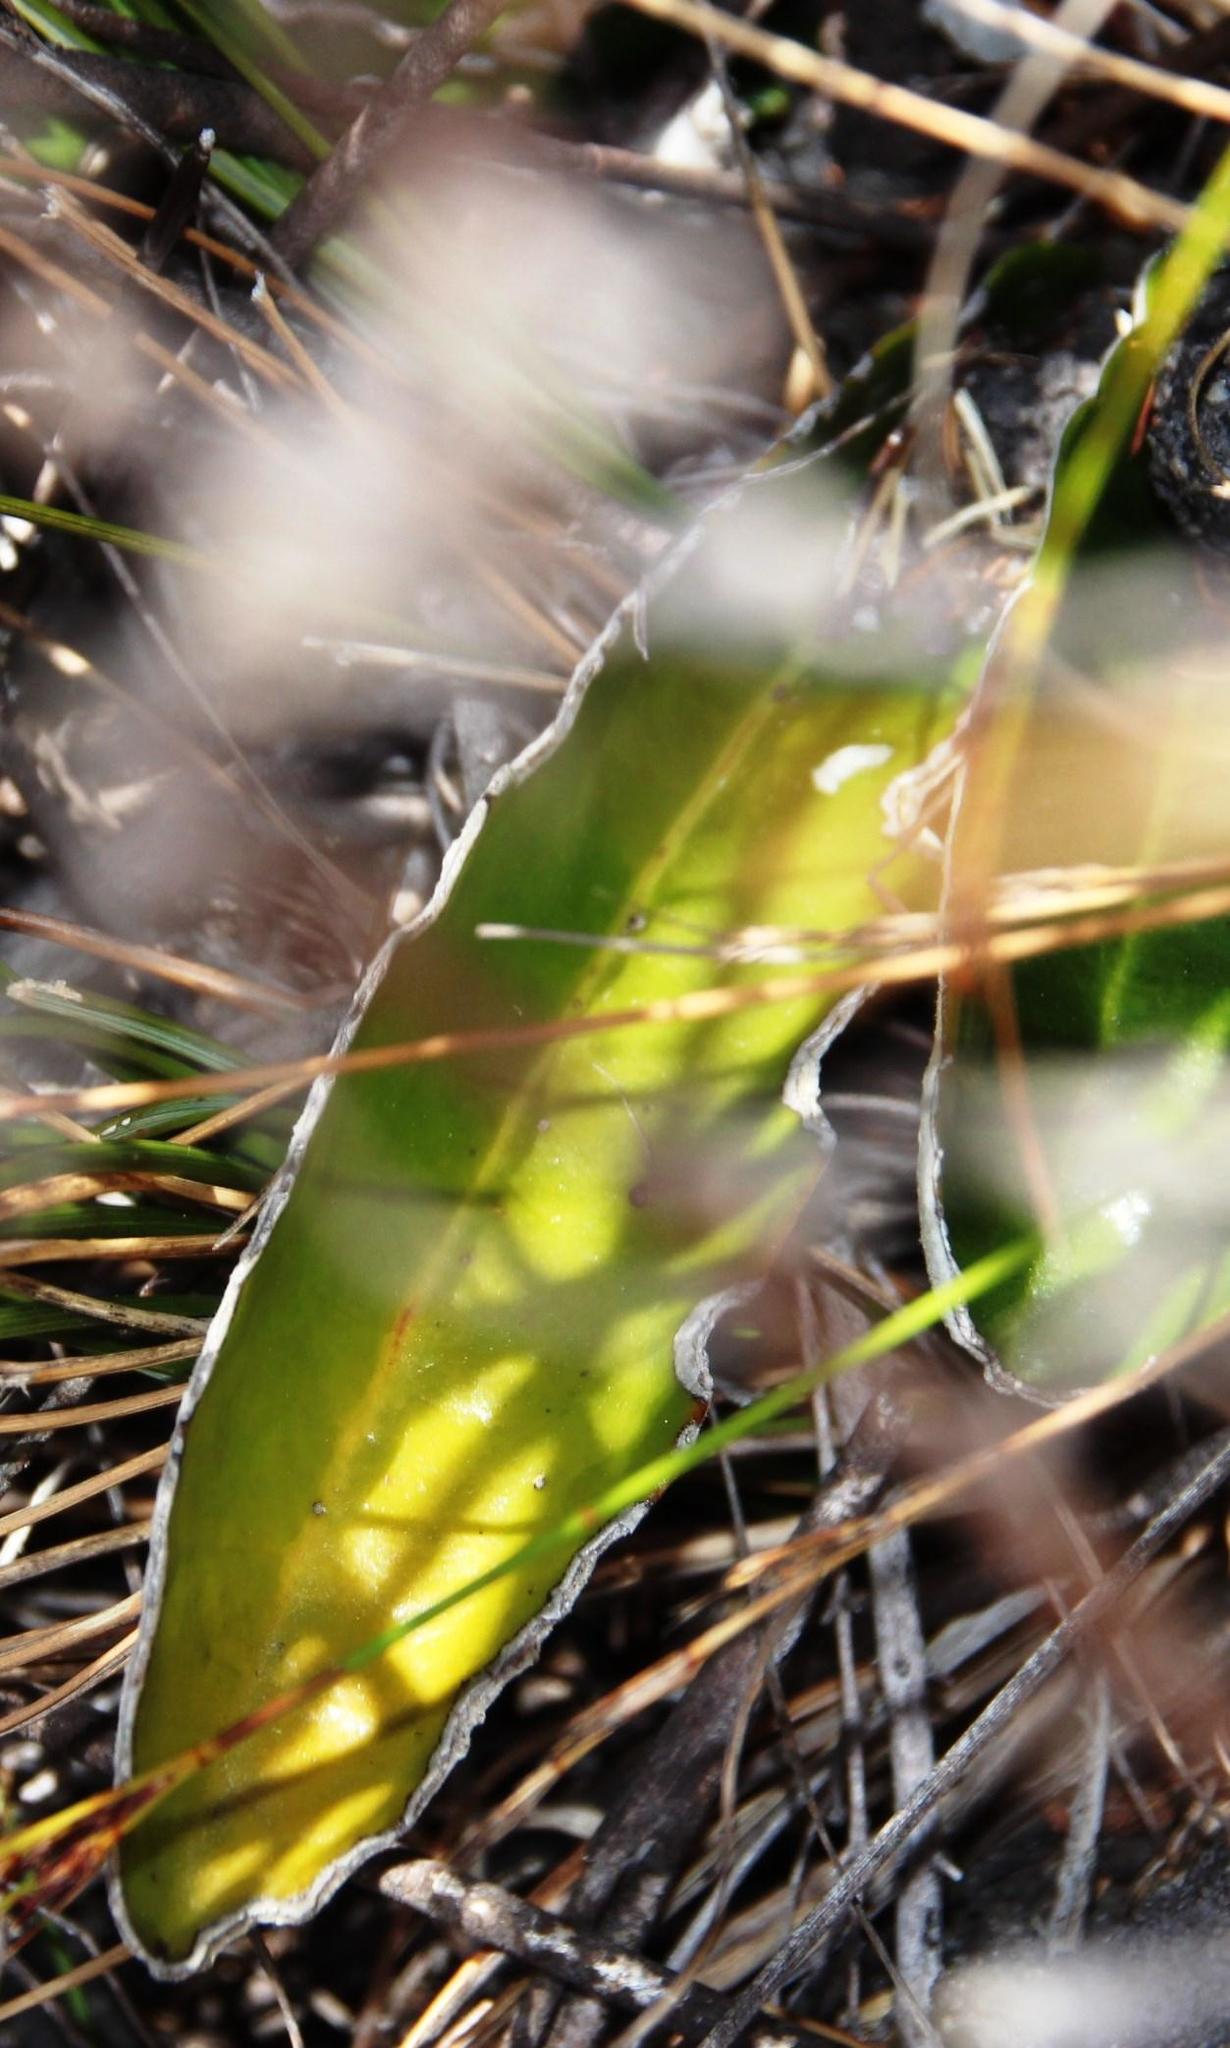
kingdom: Plantae
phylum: Tracheophyta
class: Magnoliopsida
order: Asterales
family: Asteraceae
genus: Gerbera
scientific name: Gerbera tomentosa
